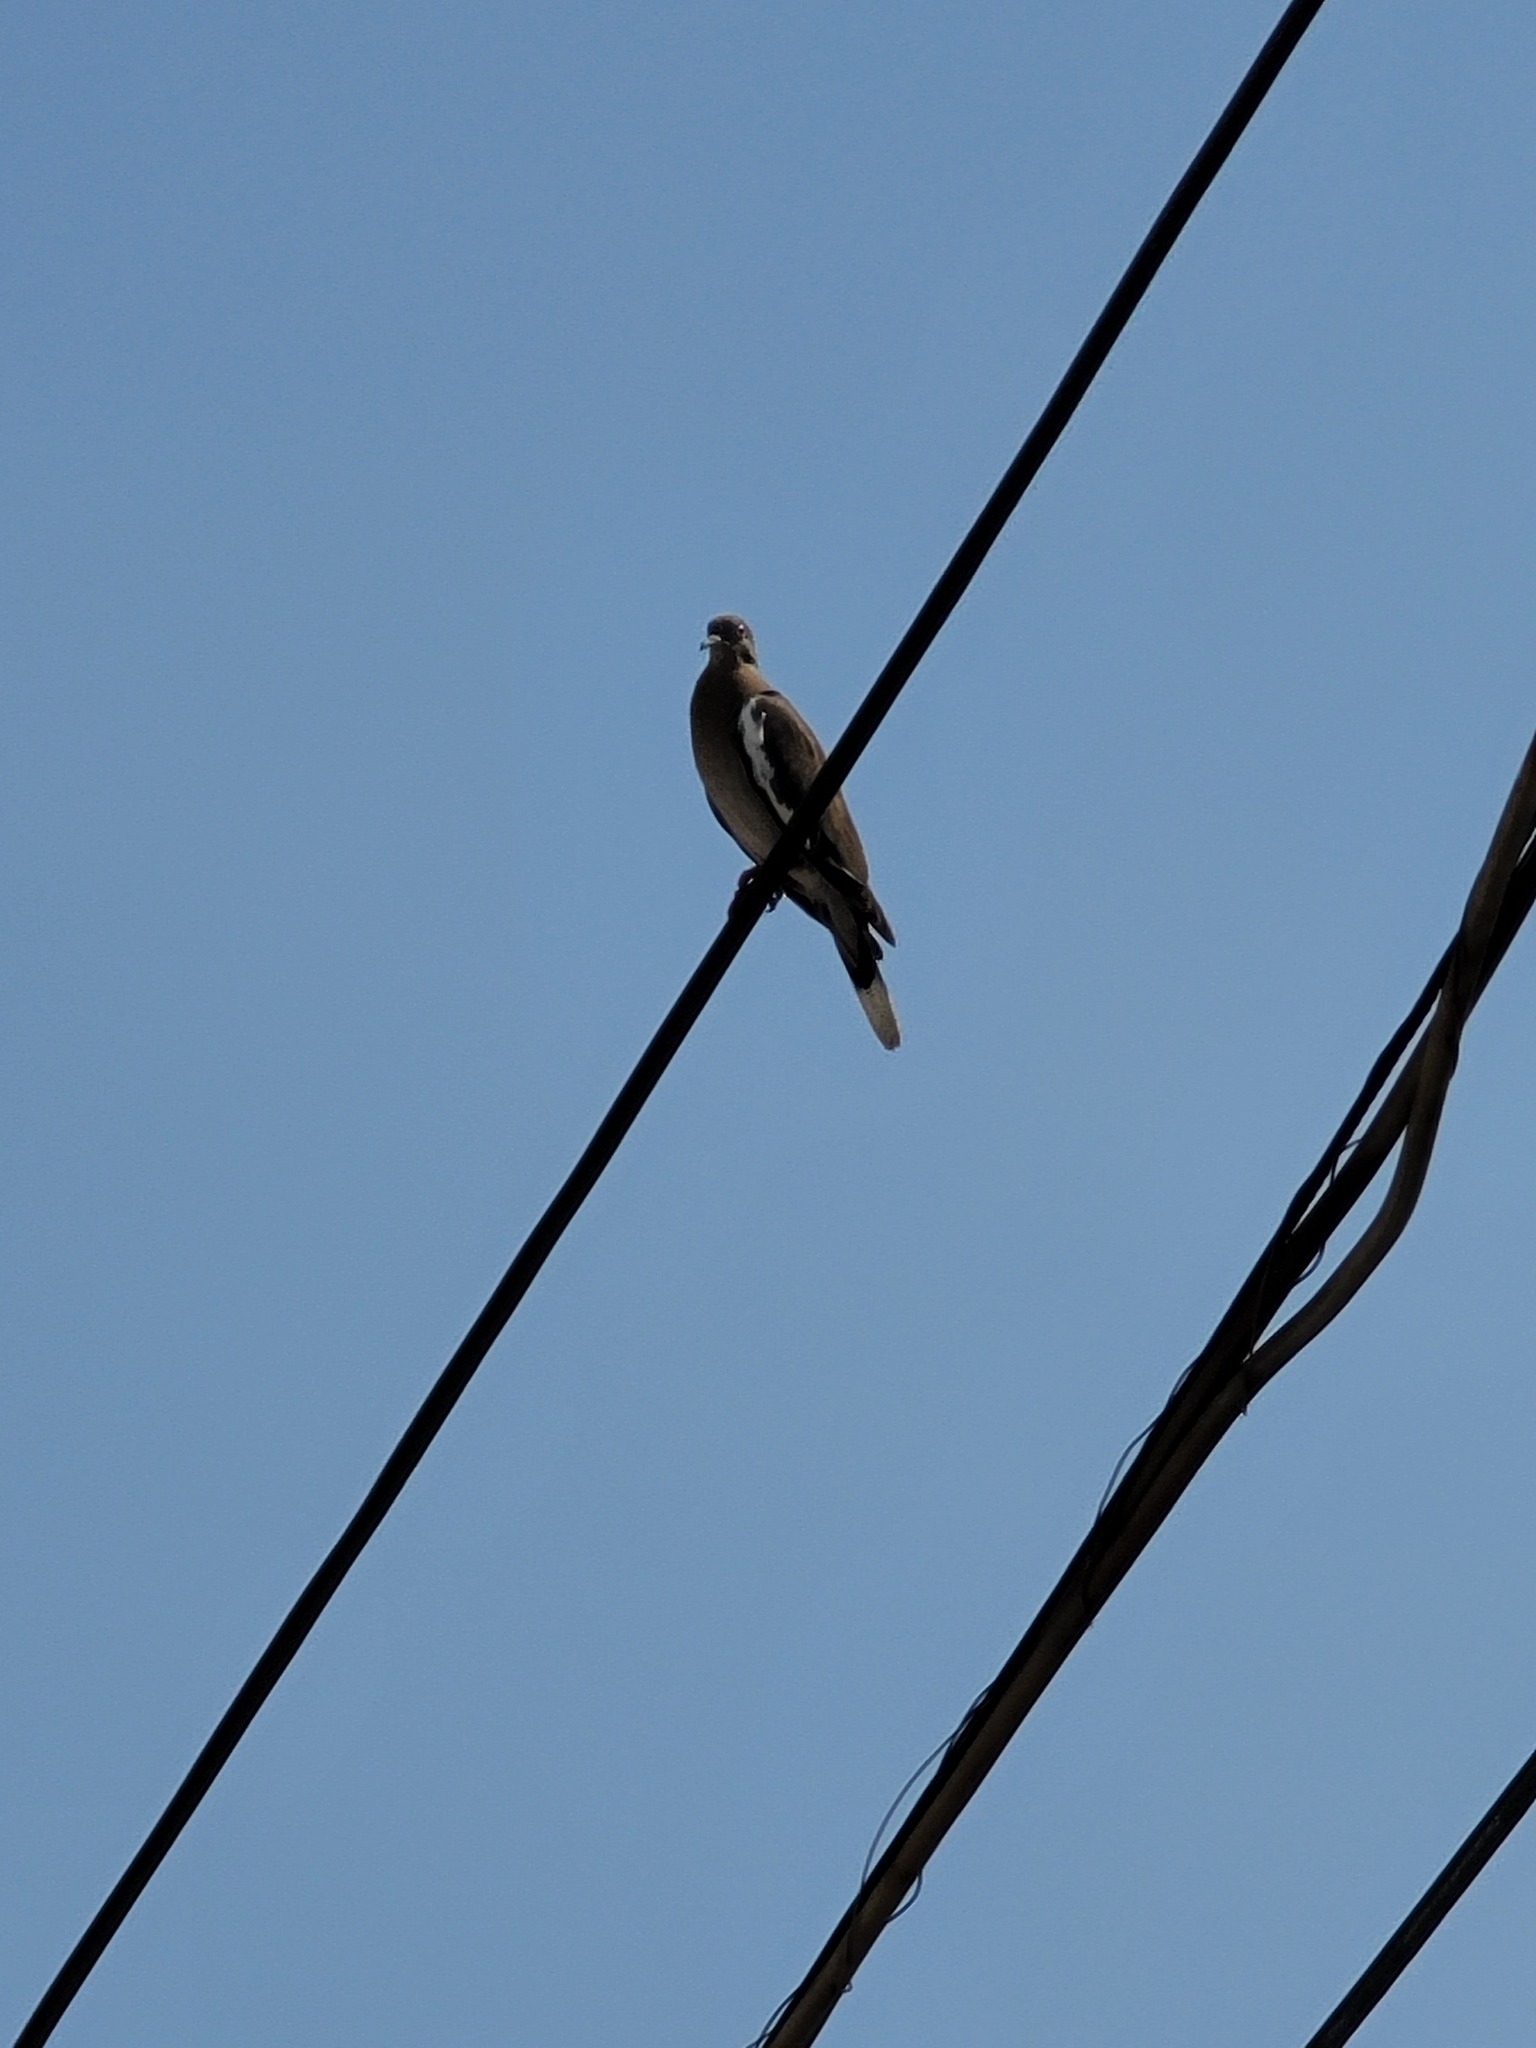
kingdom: Animalia
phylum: Chordata
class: Aves
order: Columbiformes
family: Columbidae
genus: Zenaida
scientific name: Zenaida asiatica
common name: White-winged dove
